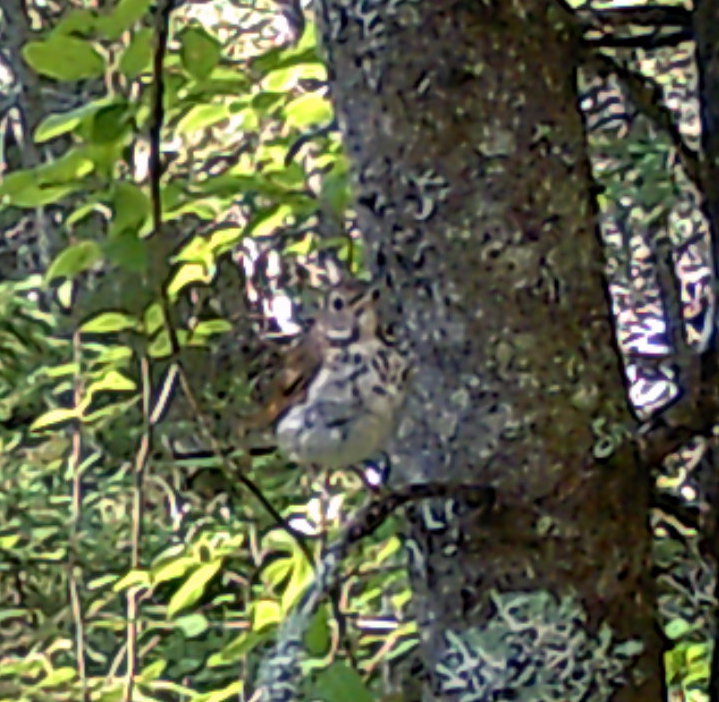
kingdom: Animalia
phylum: Chordata
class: Aves
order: Passeriformes
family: Turdidae
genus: Catharus
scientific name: Catharus guttatus
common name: Hermit thrush
